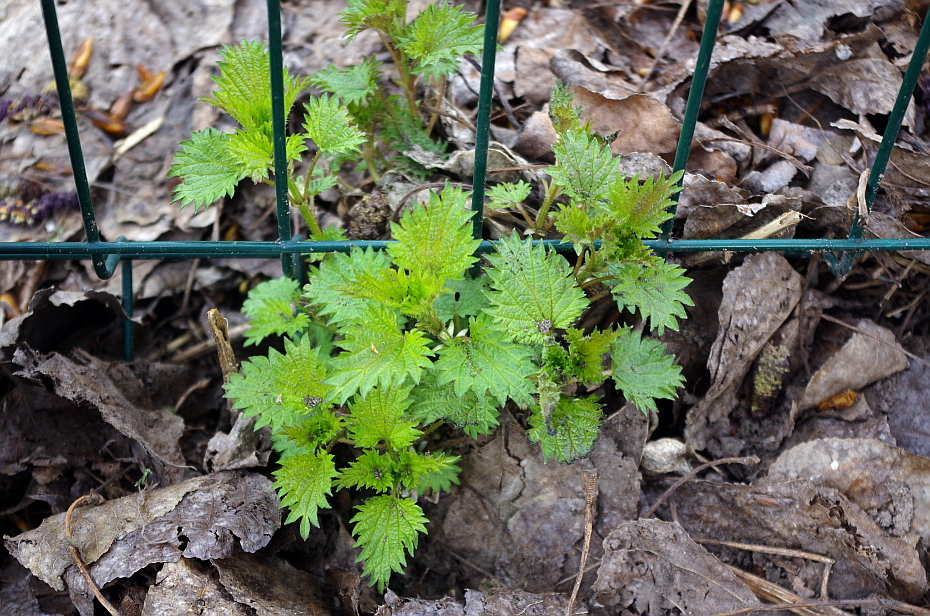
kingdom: Plantae
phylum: Tracheophyta
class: Magnoliopsida
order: Rosales
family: Urticaceae
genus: Urtica
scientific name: Urtica dioica
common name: Common nettle
